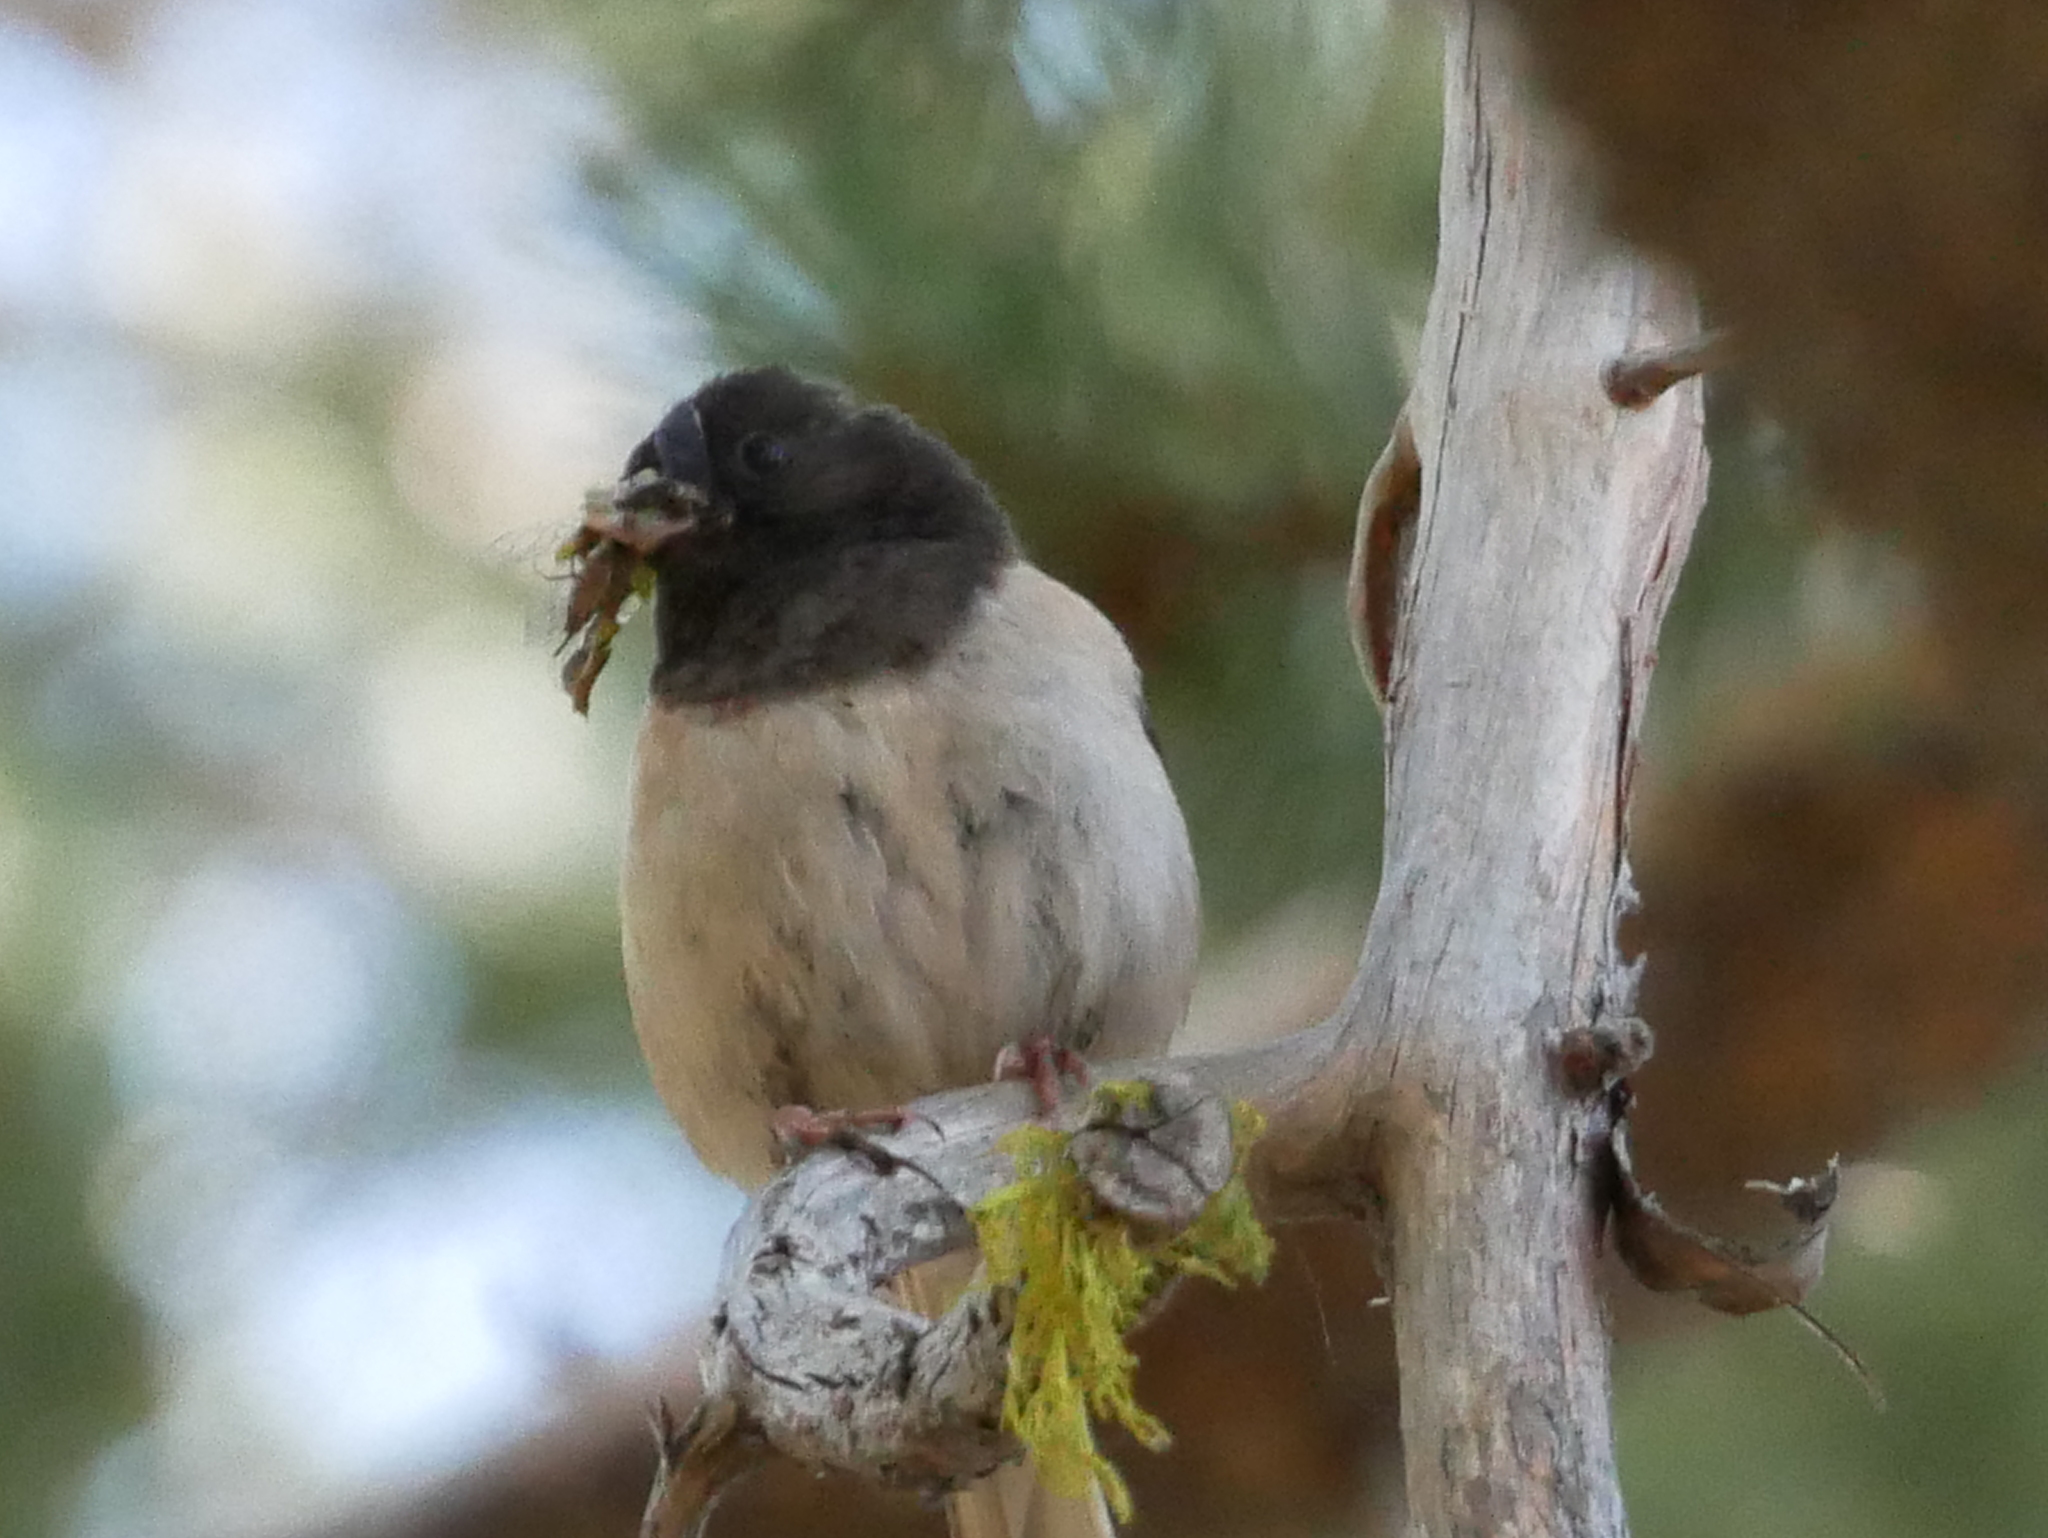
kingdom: Animalia
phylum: Chordata
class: Aves
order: Passeriformes
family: Passerellidae
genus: Junco
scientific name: Junco hyemalis
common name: Dark-eyed junco
